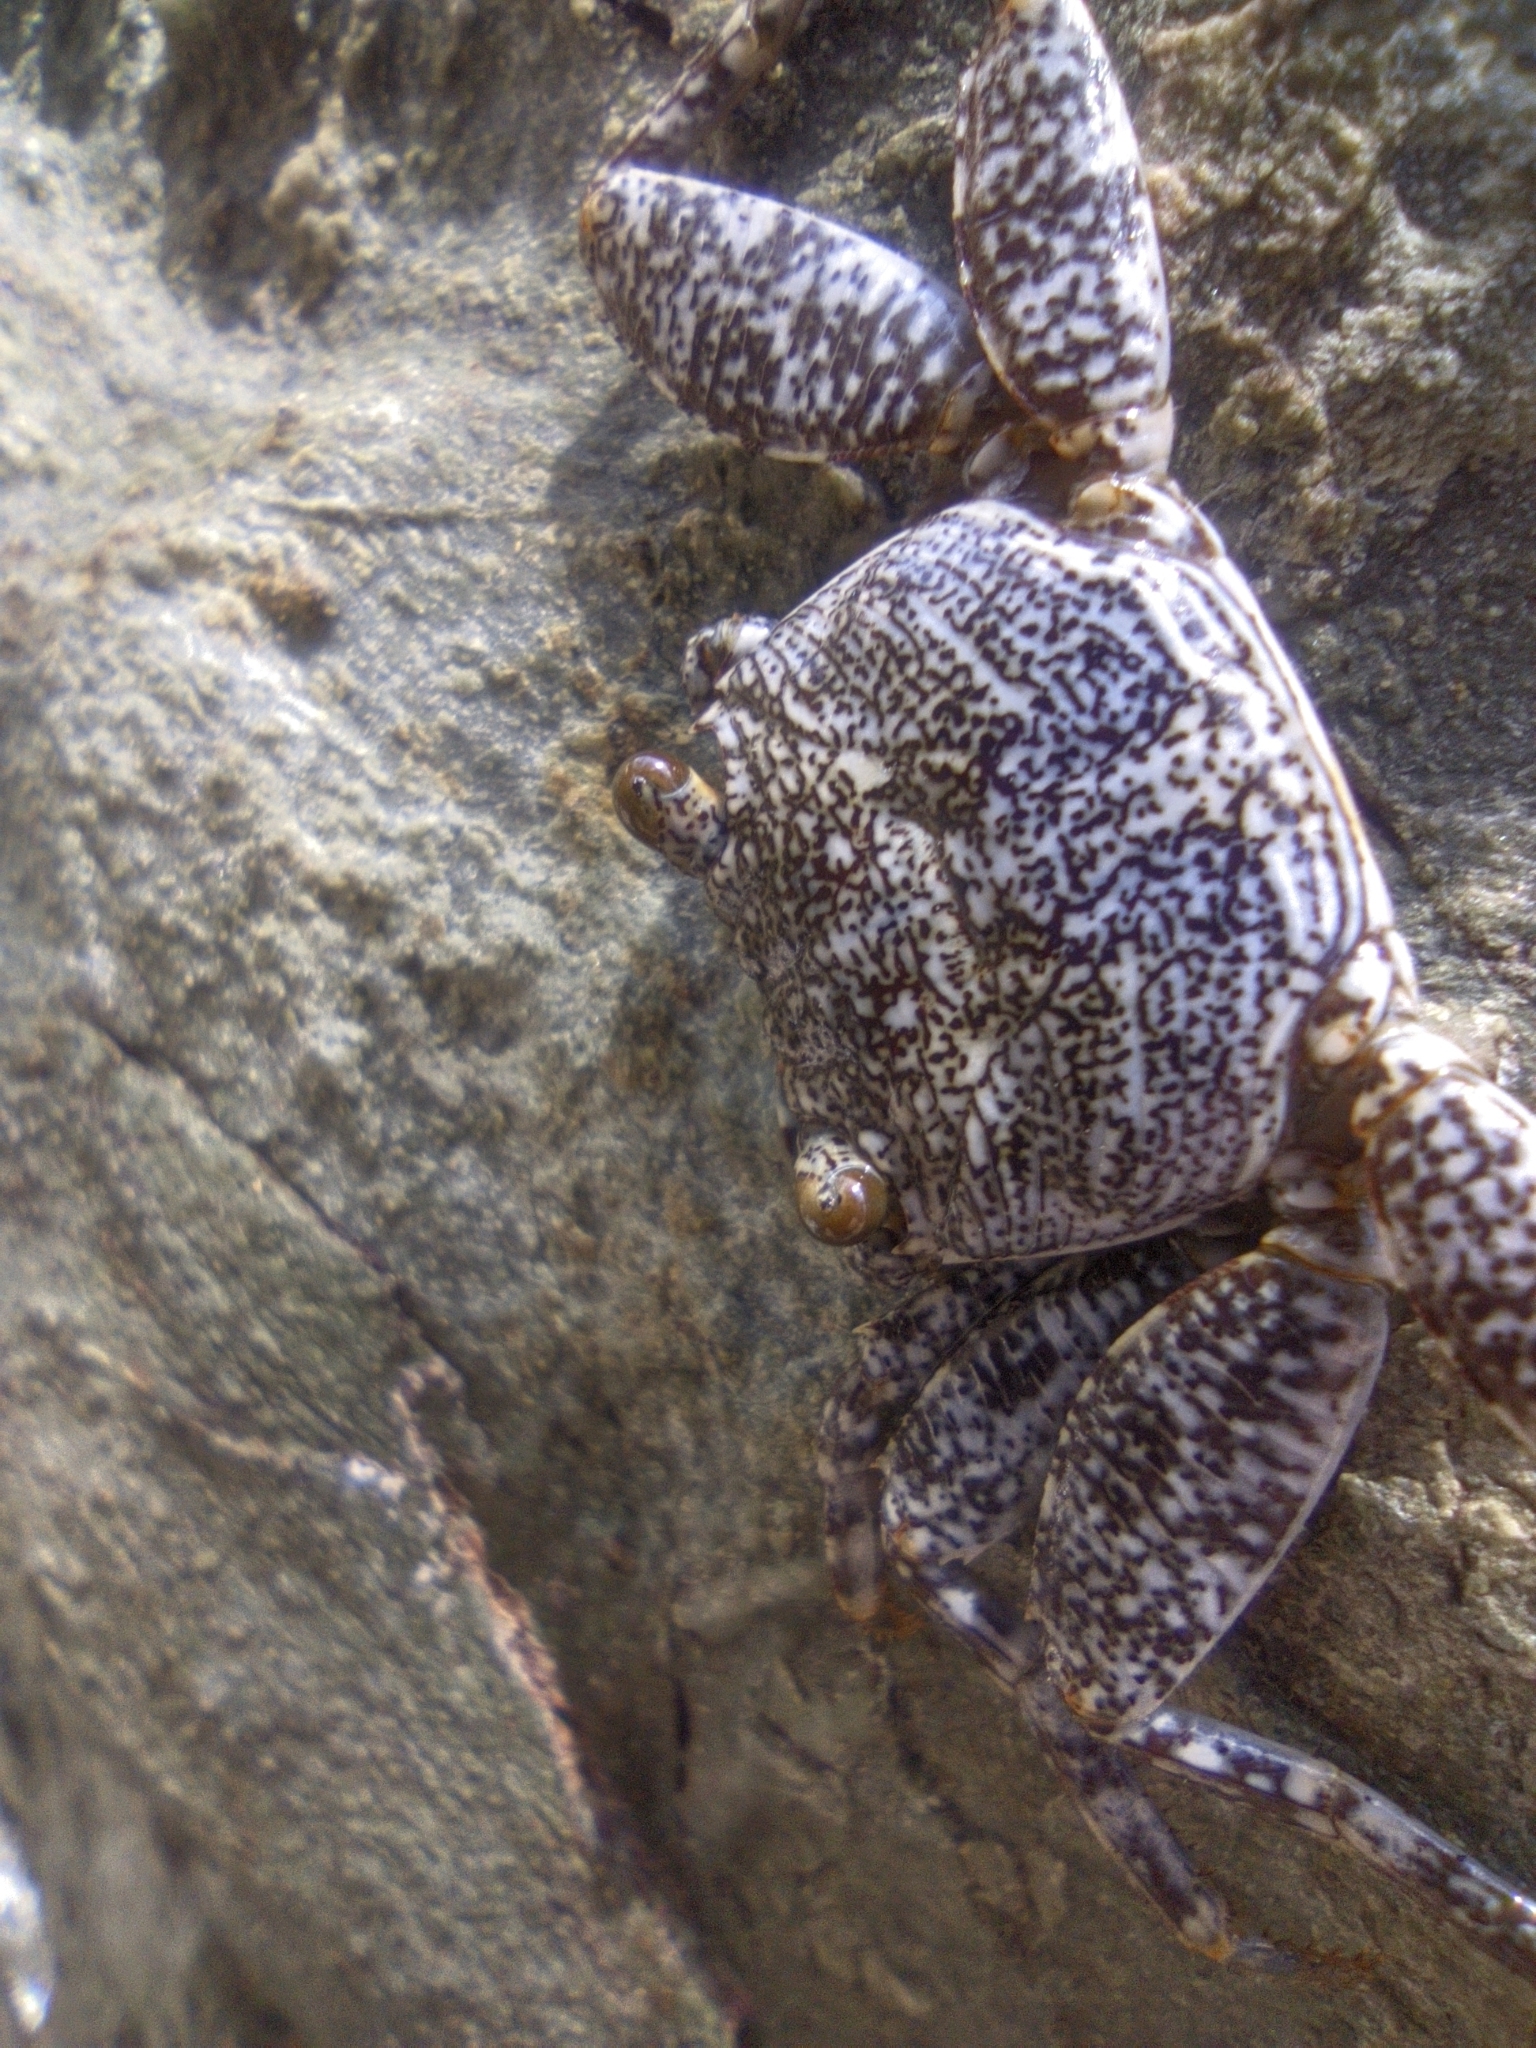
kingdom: Animalia
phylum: Arthropoda
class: Malacostraca
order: Decapoda
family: Grapsidae
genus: Grapsus
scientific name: Grapsus grapsus
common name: Sally lightfoot
